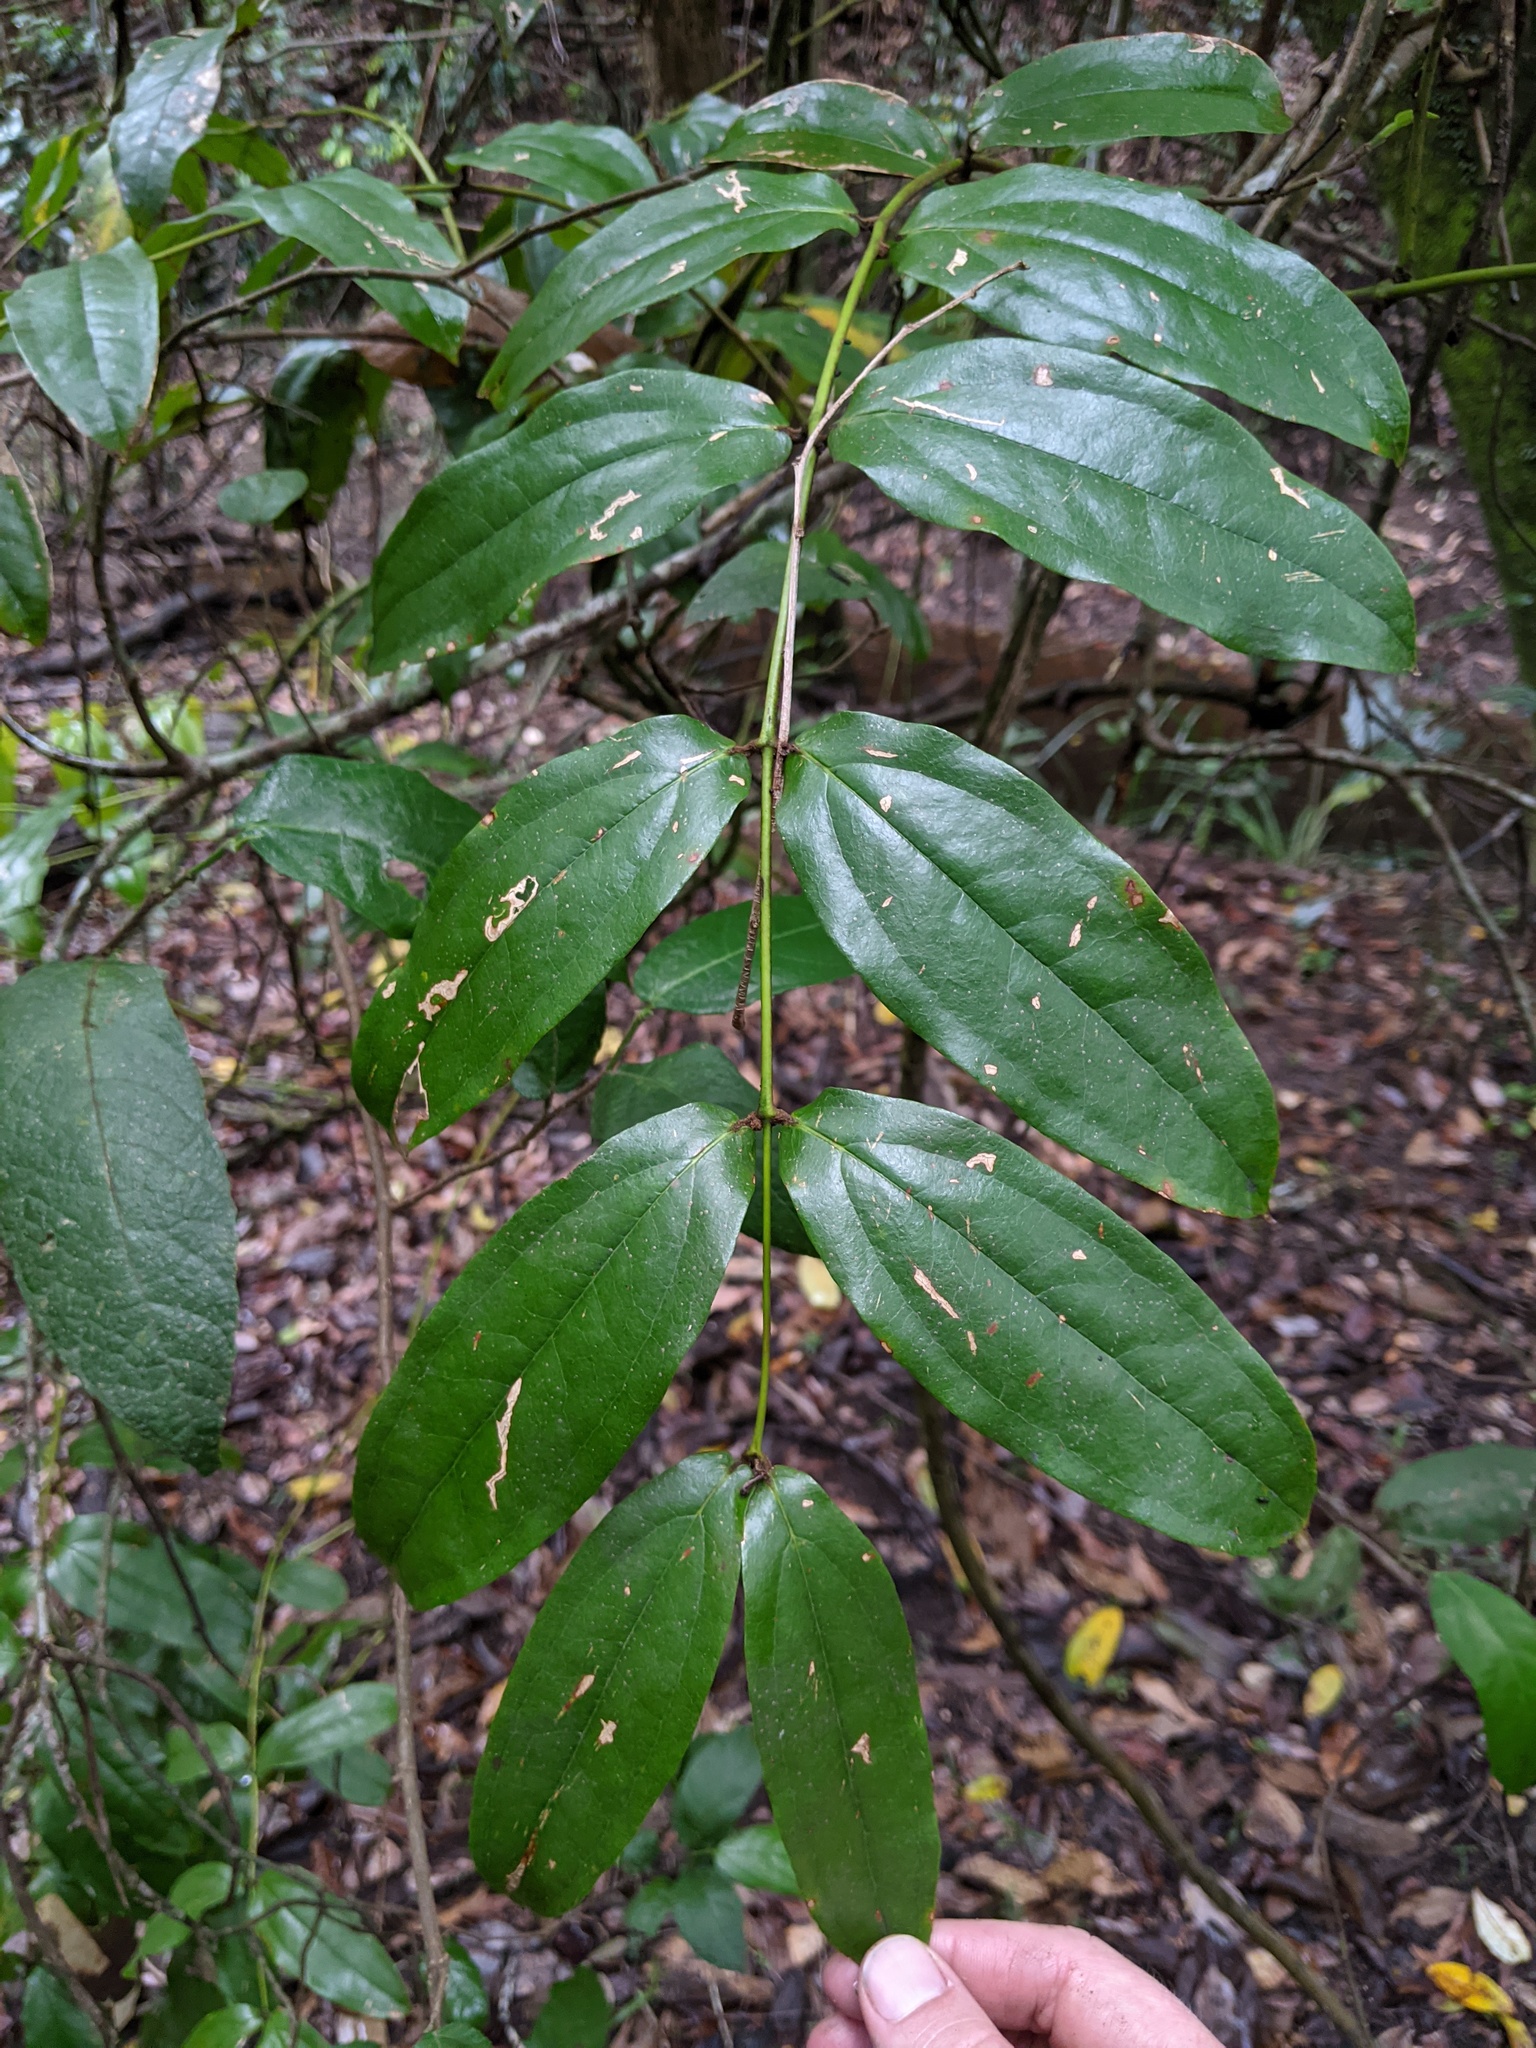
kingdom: Plantae
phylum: Tracheophyta
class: Liliopsida
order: Liliales
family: Ripogonaceae
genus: Ripogonum
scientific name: Ripogonum elseyanum
